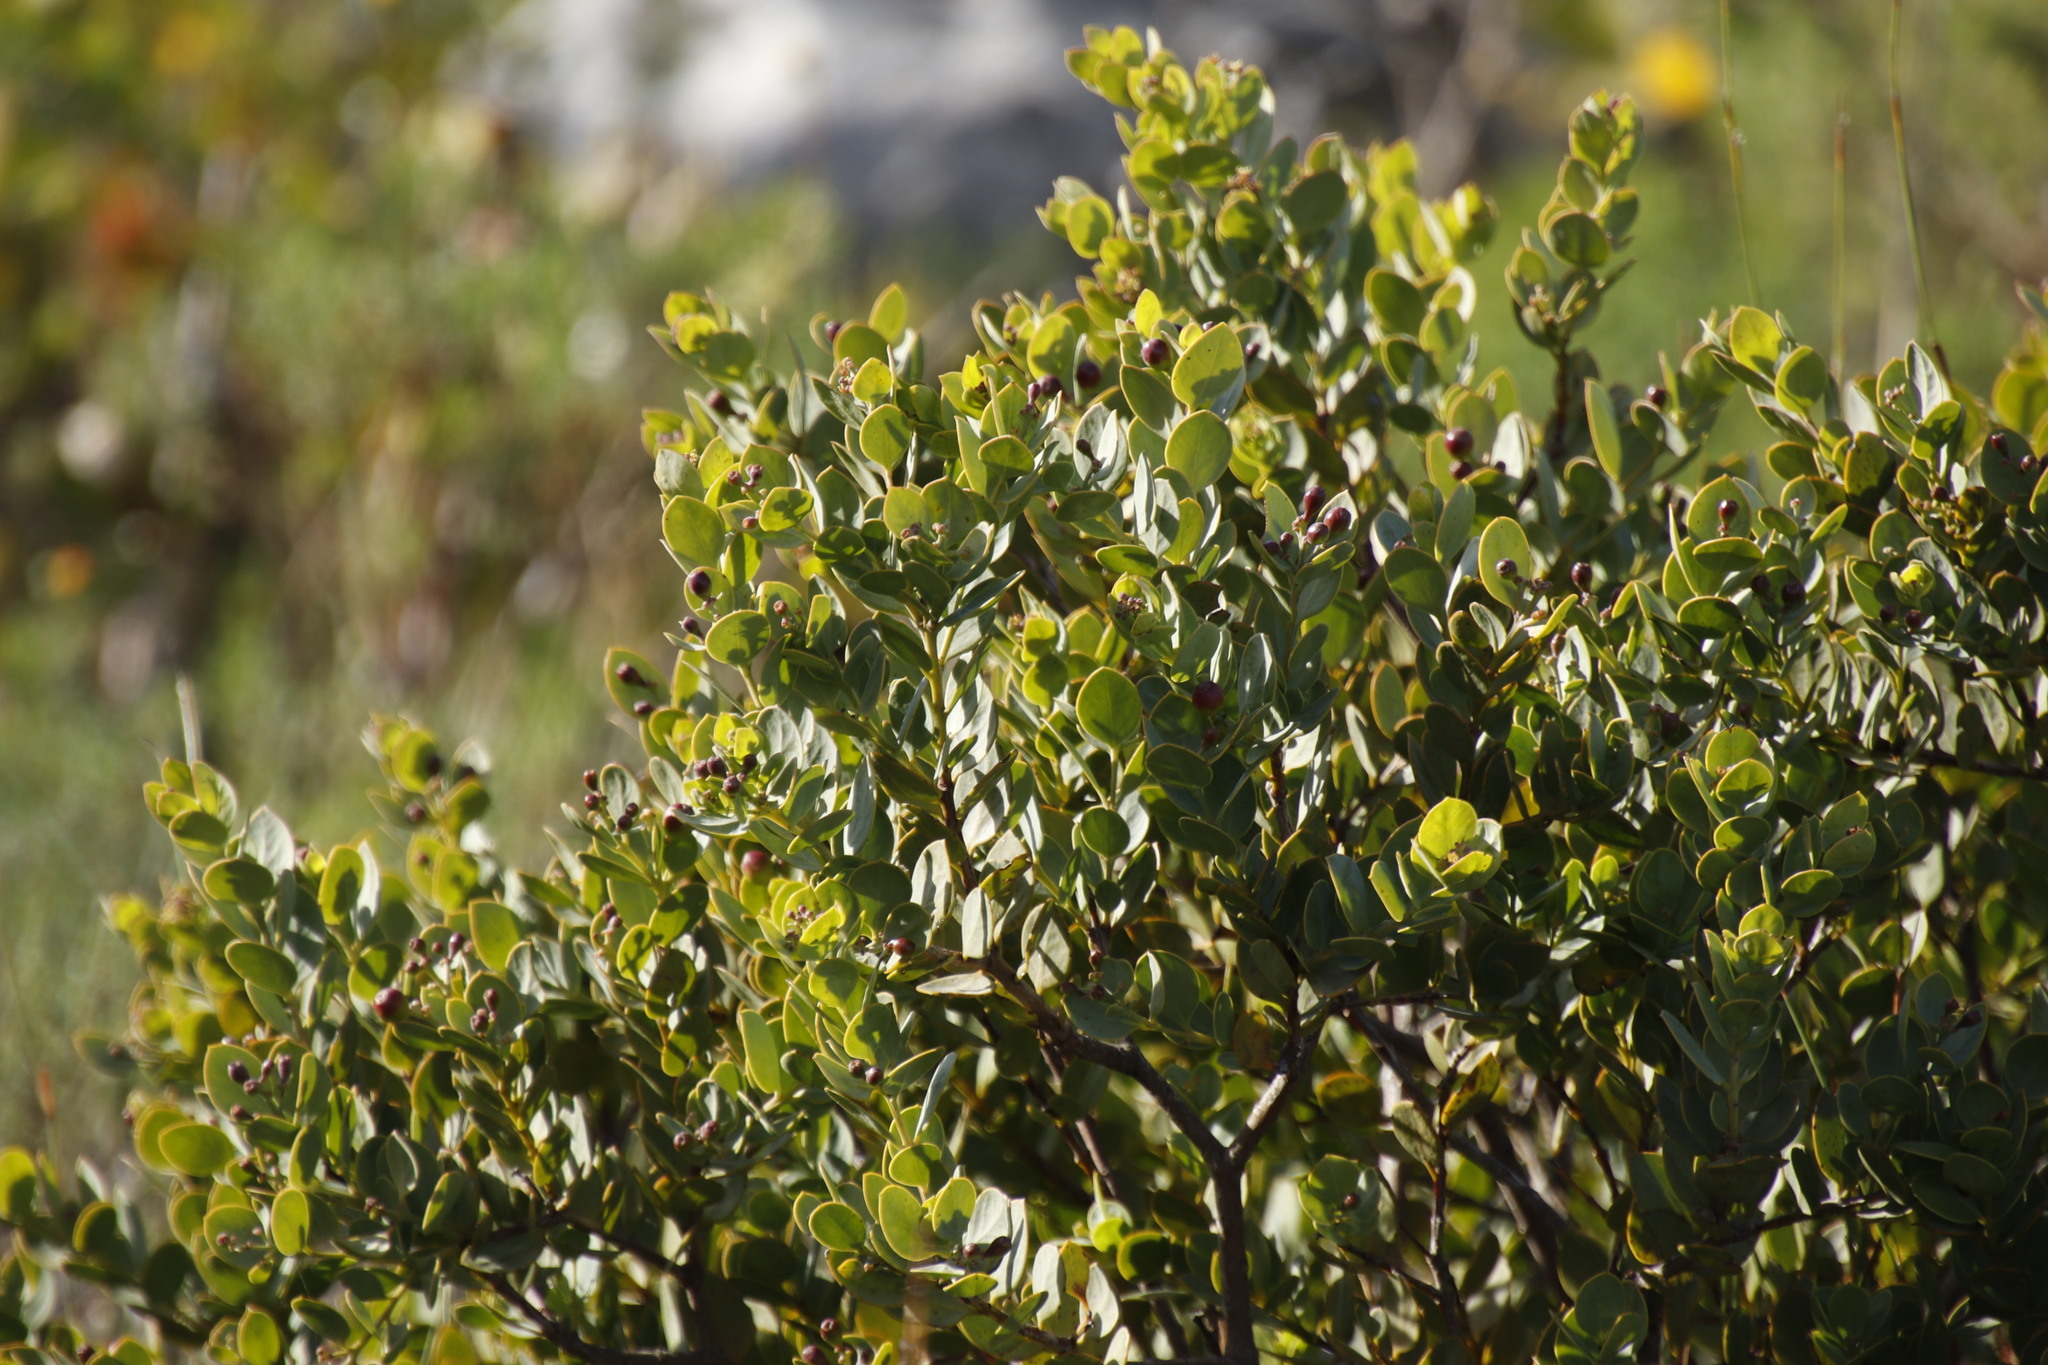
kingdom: Plantae
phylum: Tracheophyta
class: Magnoliopsida
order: Santalales
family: Santalaceae
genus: Osyris
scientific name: Osyris compressa
